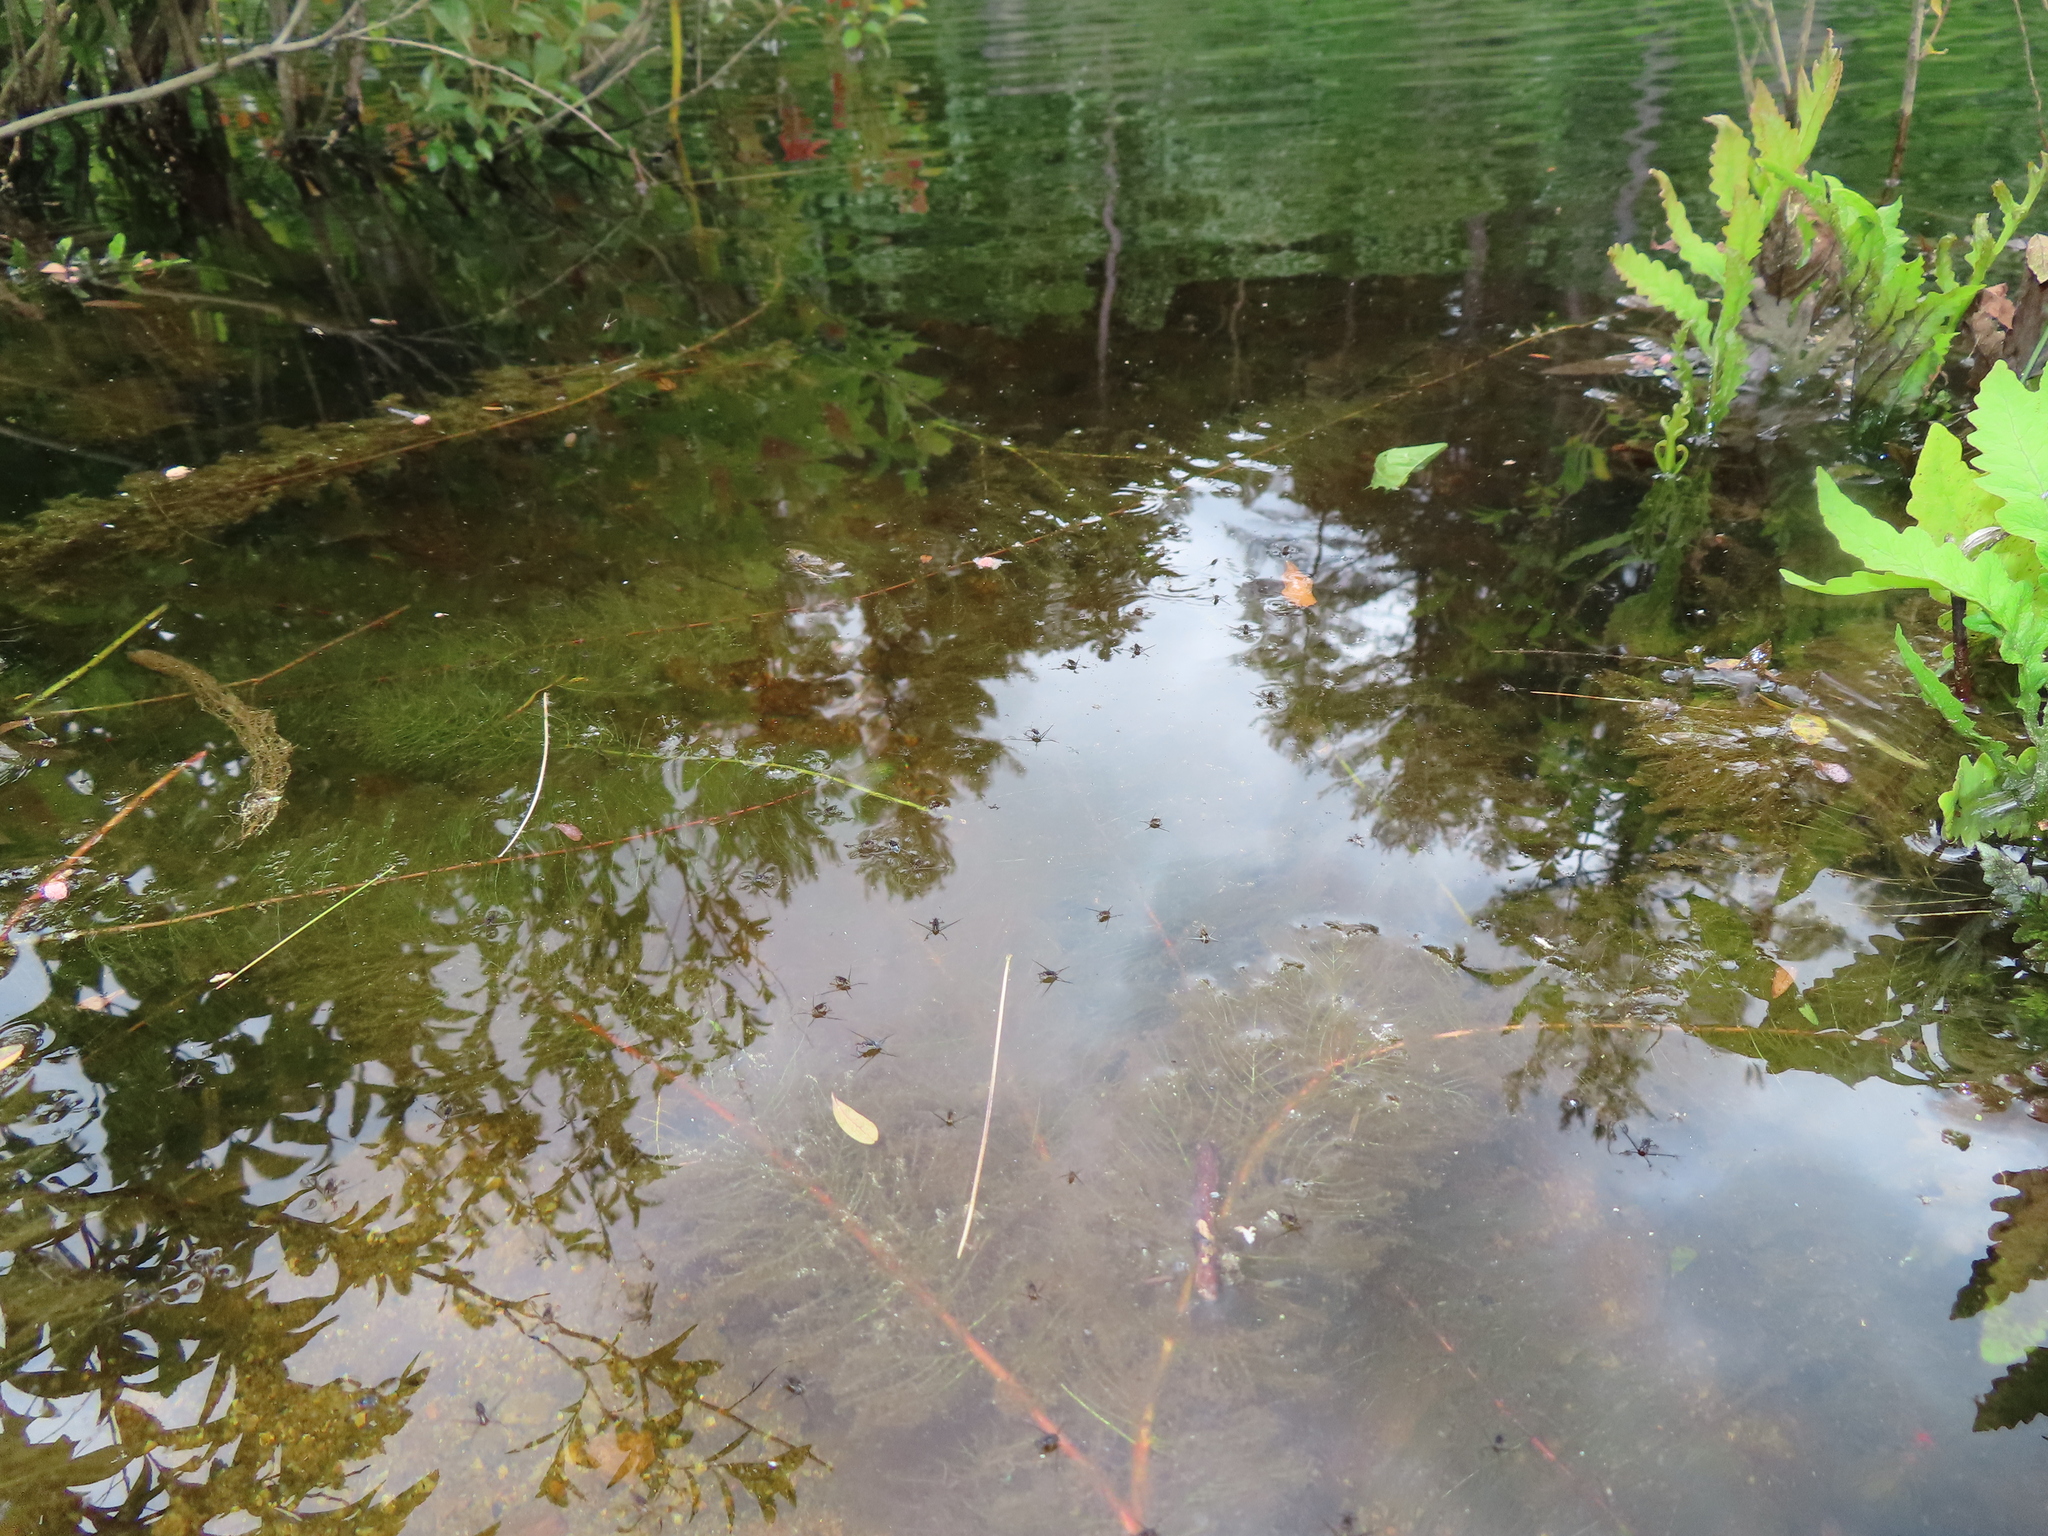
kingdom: Animalia
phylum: Arthropoda
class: Insecta
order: Hemiptera
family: Gerridae
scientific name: Gerridae
